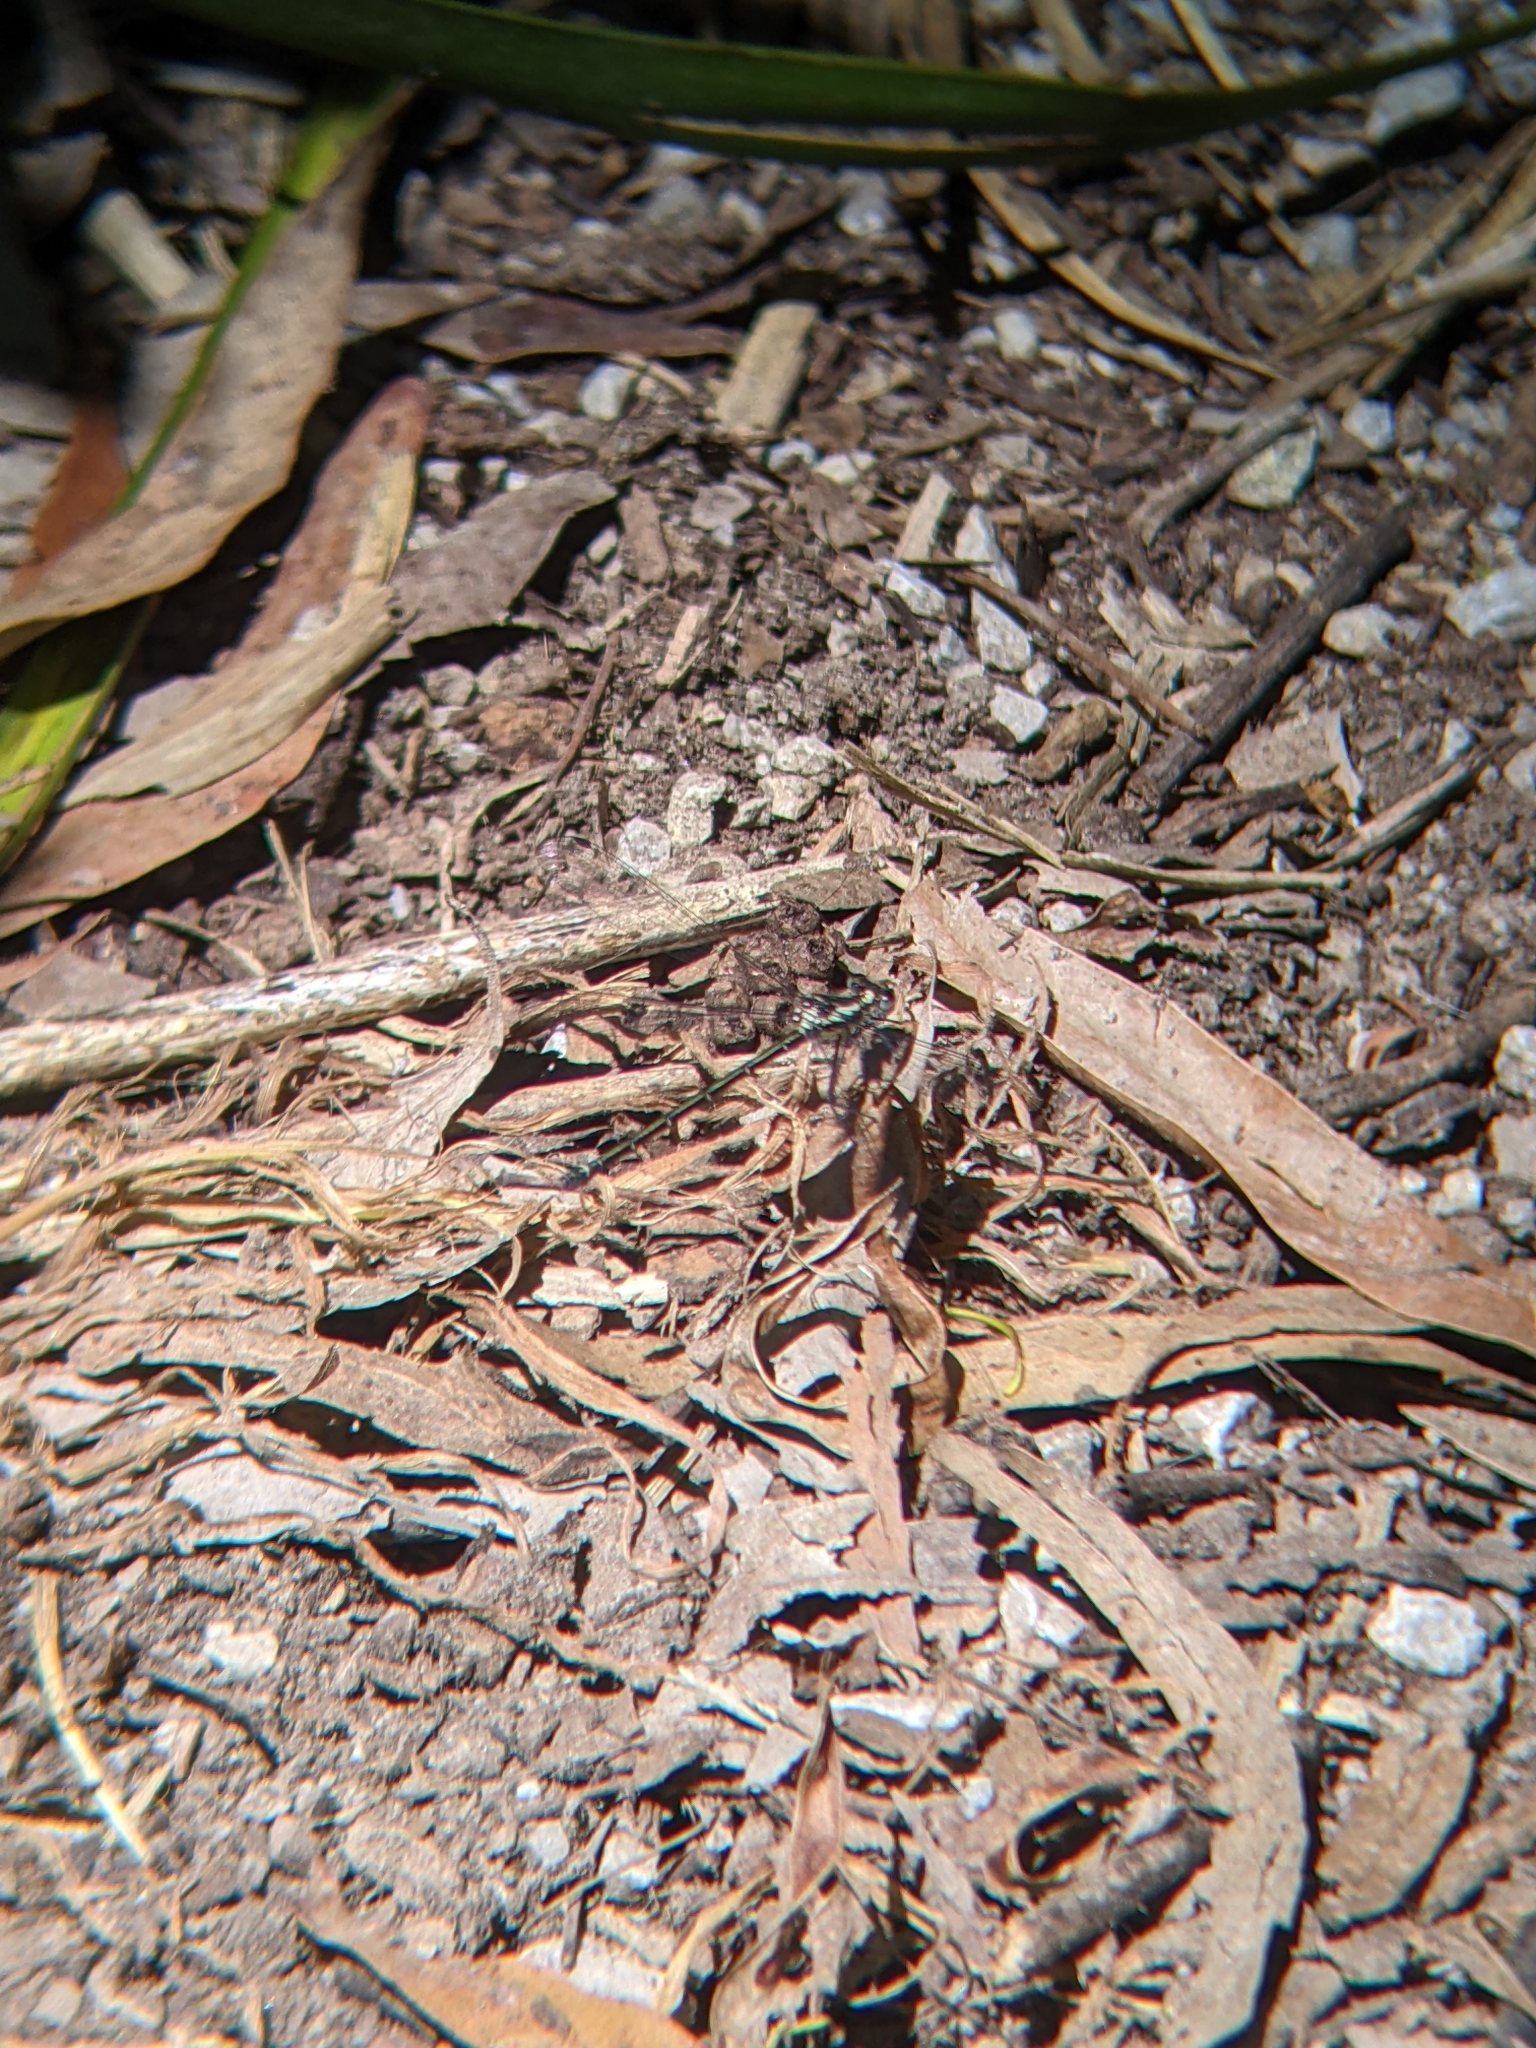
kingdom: Animalia
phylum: Arthropoda
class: Insecta
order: Odonata
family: Argiolestidae
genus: Austroargiolestes
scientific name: Austroargiolestes icteromelas
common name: Common flatwing
